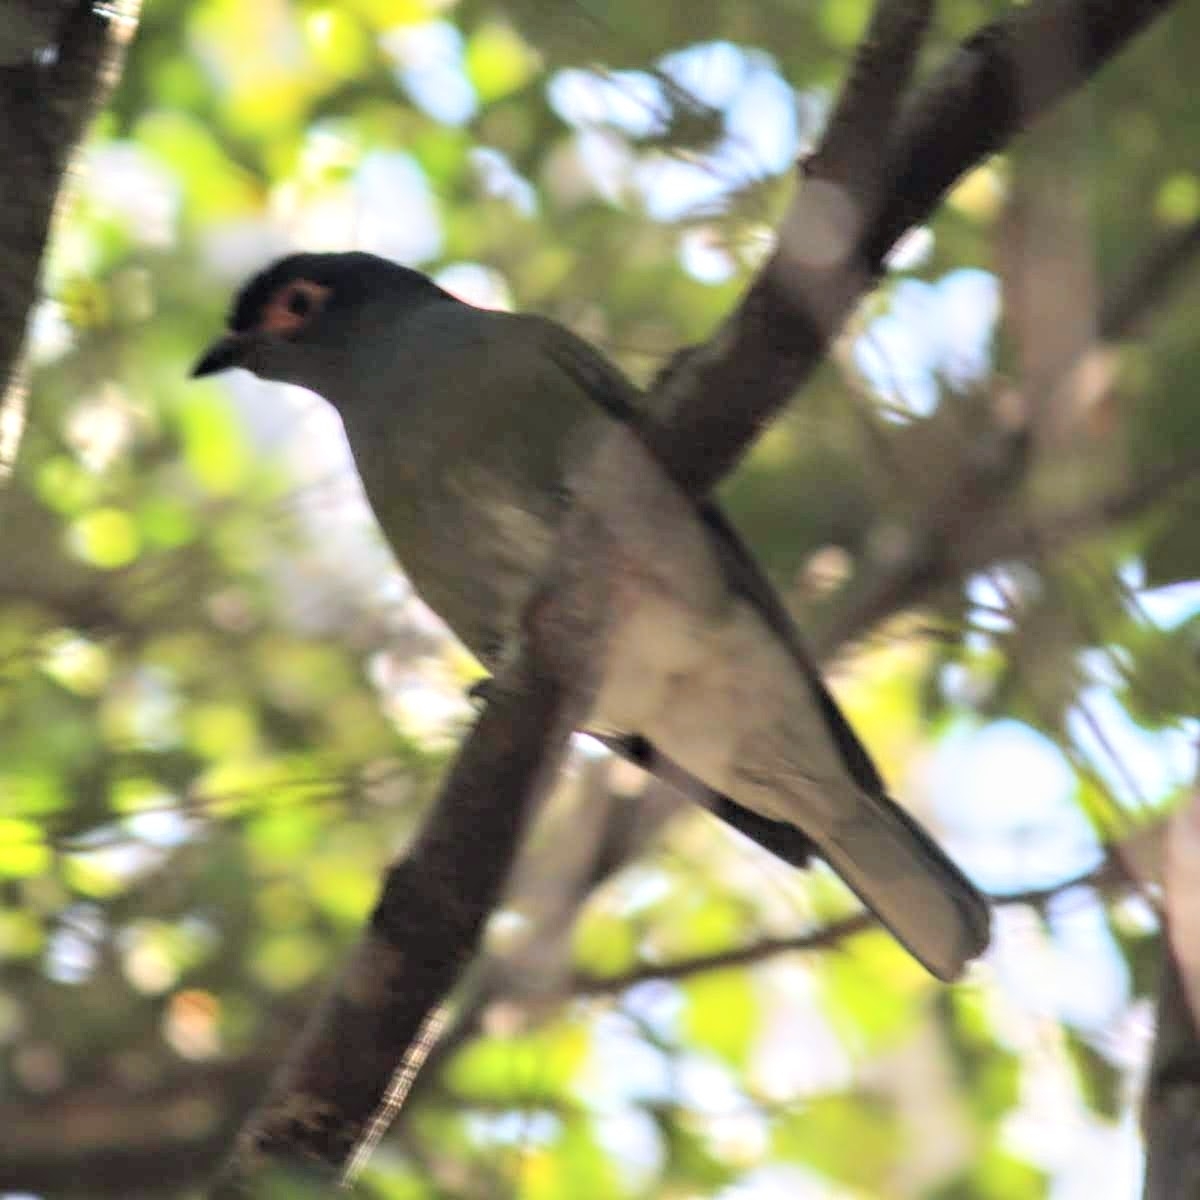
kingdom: Animalia
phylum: Chordata
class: Aves
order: Passeriformes
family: Oriolidae
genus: Sphecotheres
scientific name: Sphecotheres vieilloti
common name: Australasian figbird
